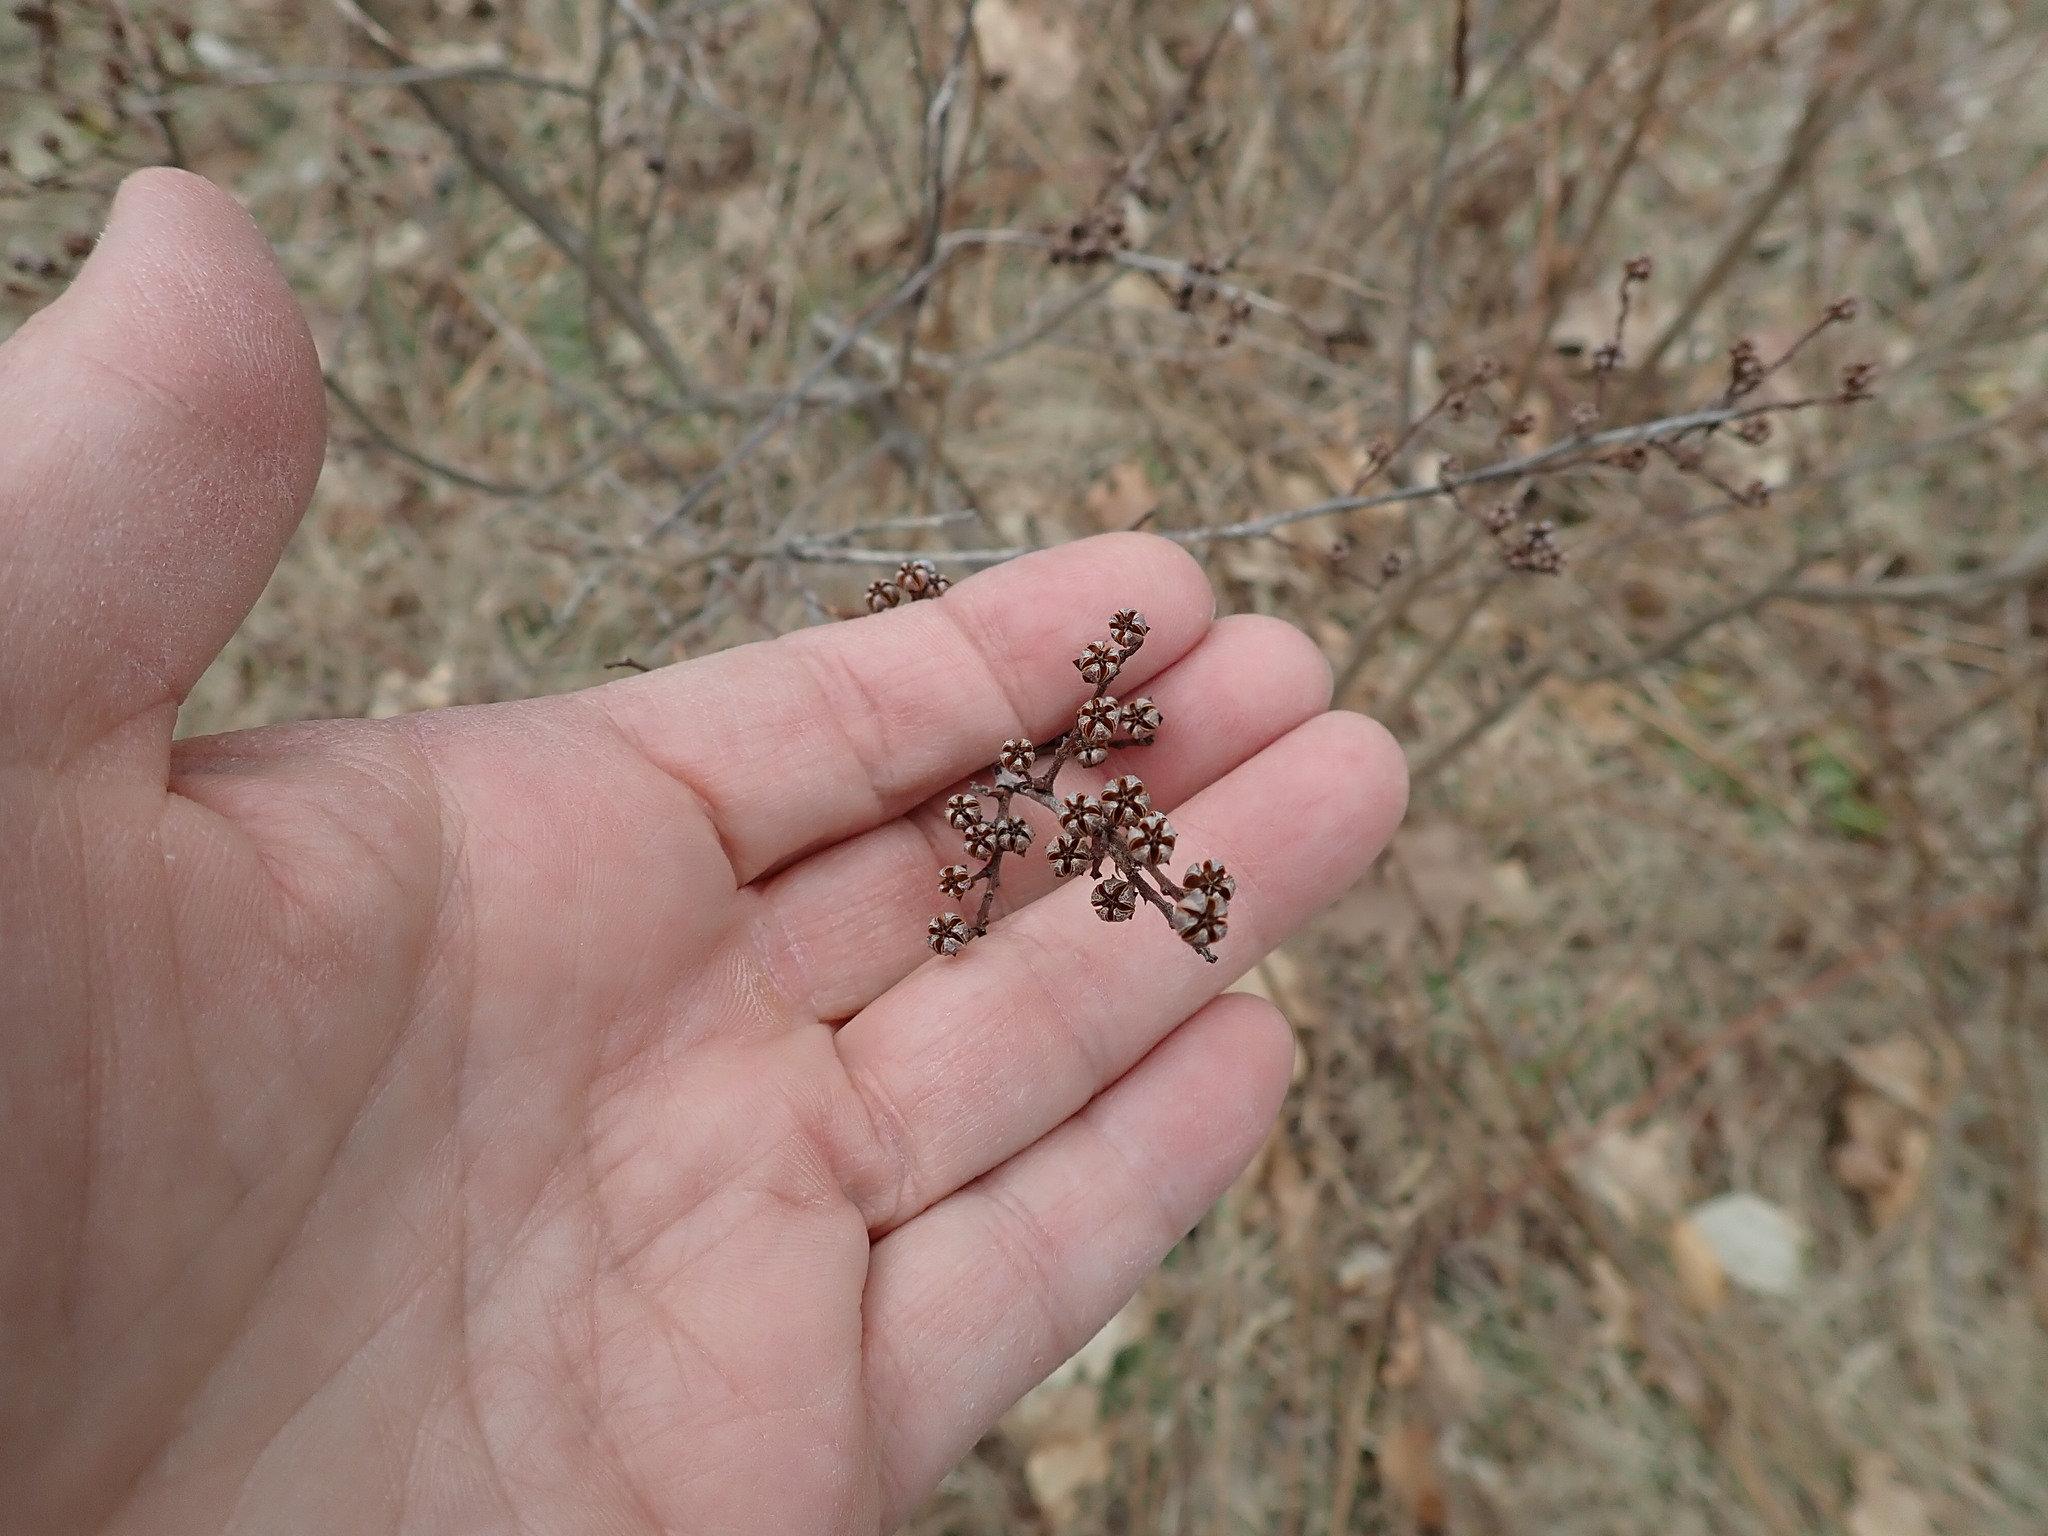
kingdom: Plantae
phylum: Tracheophyta
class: Magnoliopsida
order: Ericales
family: Ericaceae
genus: Lyonia
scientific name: Lyonia ligustrina
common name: Maleberry
